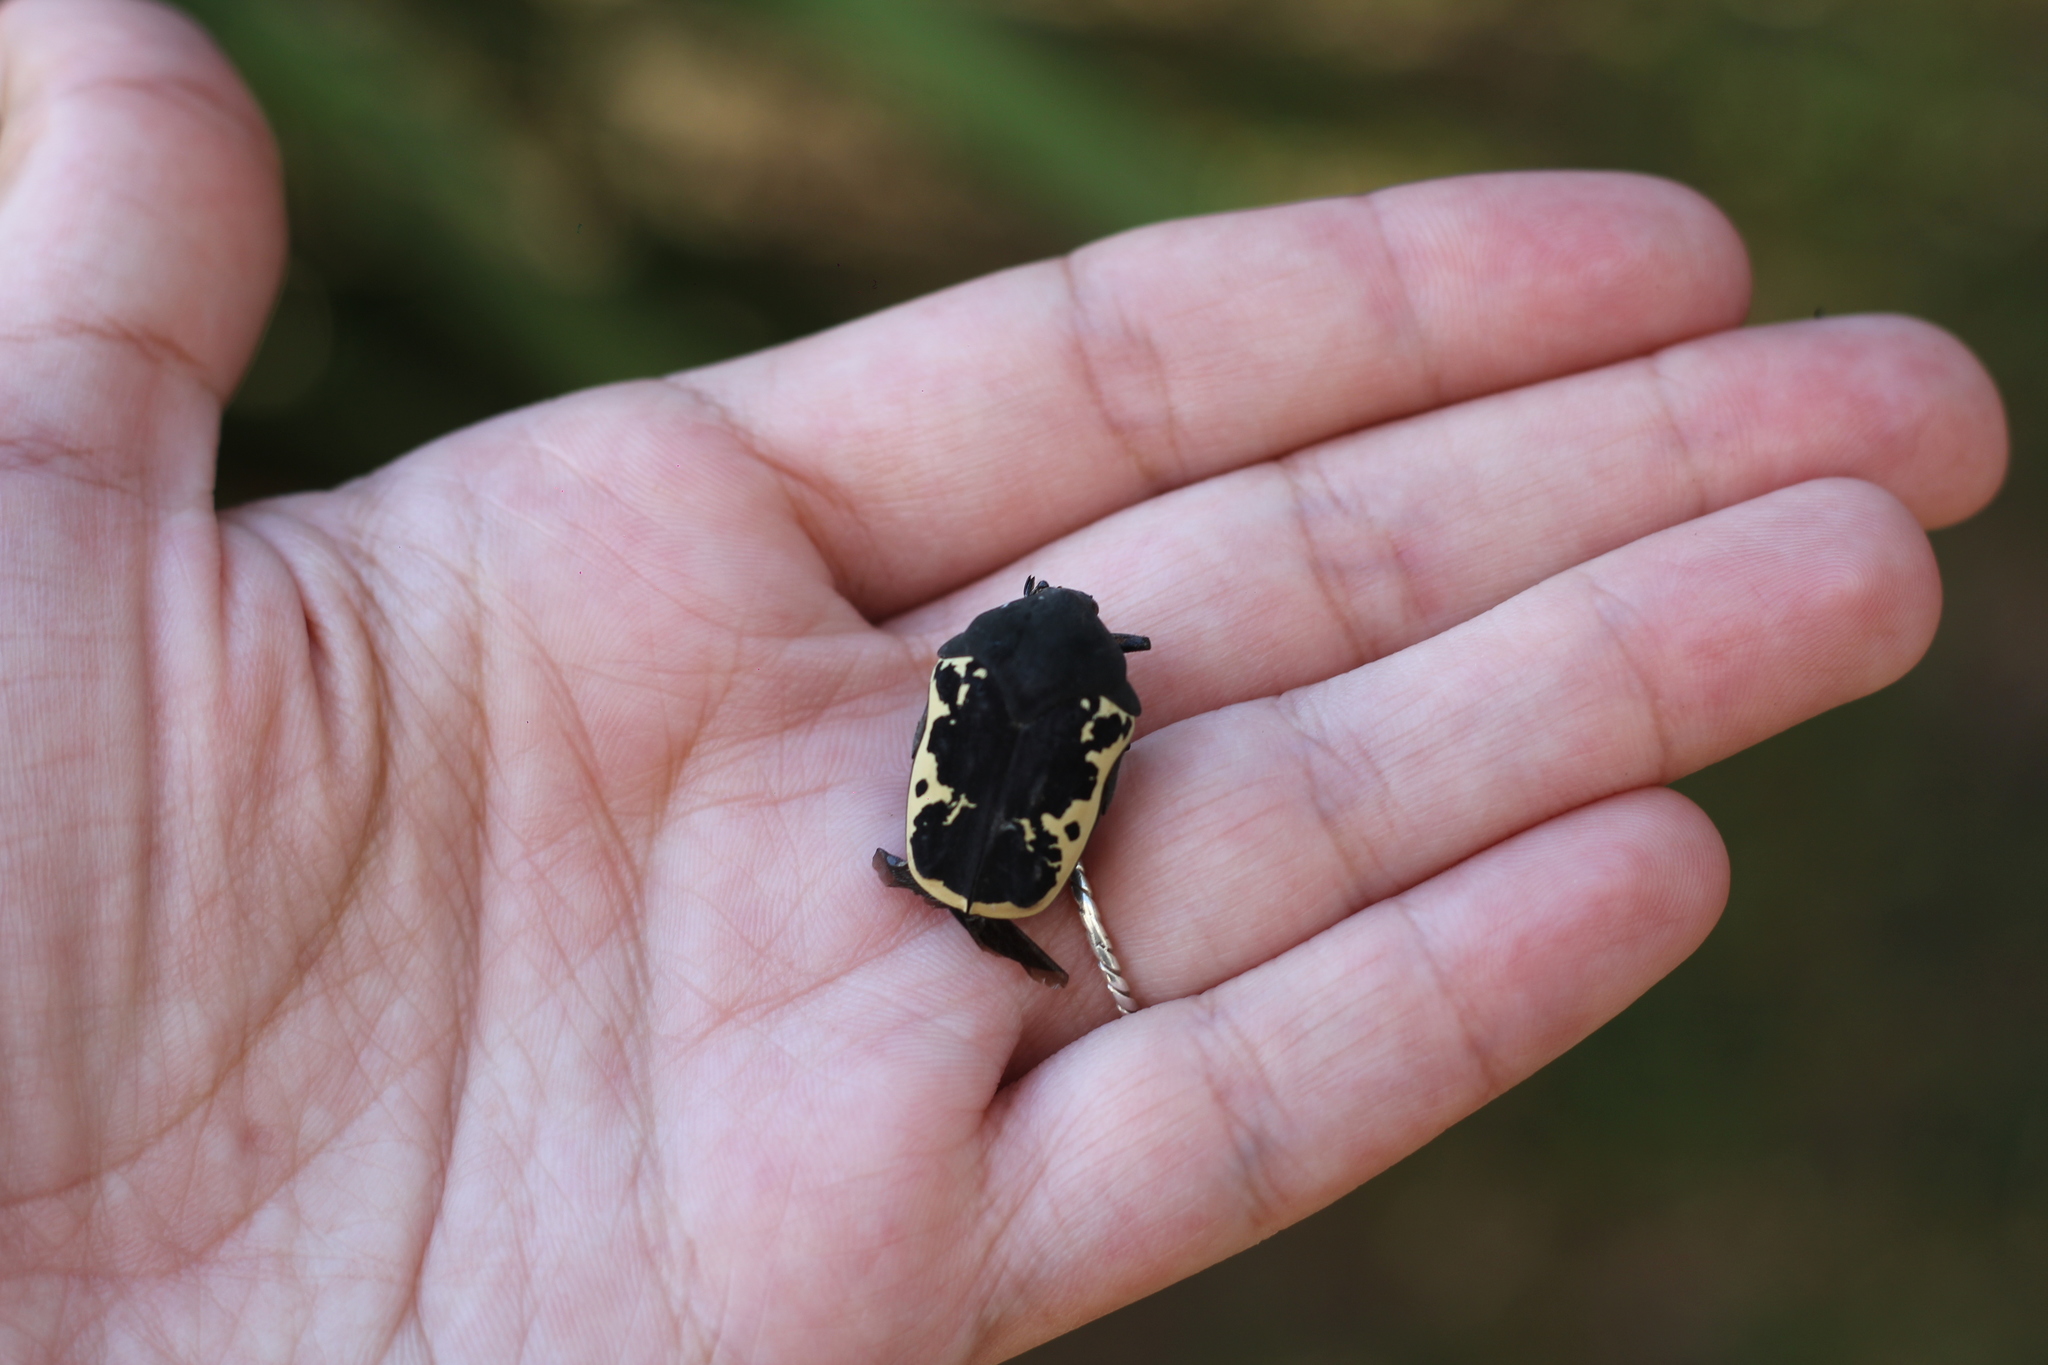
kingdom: Animalia
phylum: Arthropoda
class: Insecta
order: Coleoptera
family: Scarabaeidae
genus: Gymnetis
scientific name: Gymnetis pudibunda
